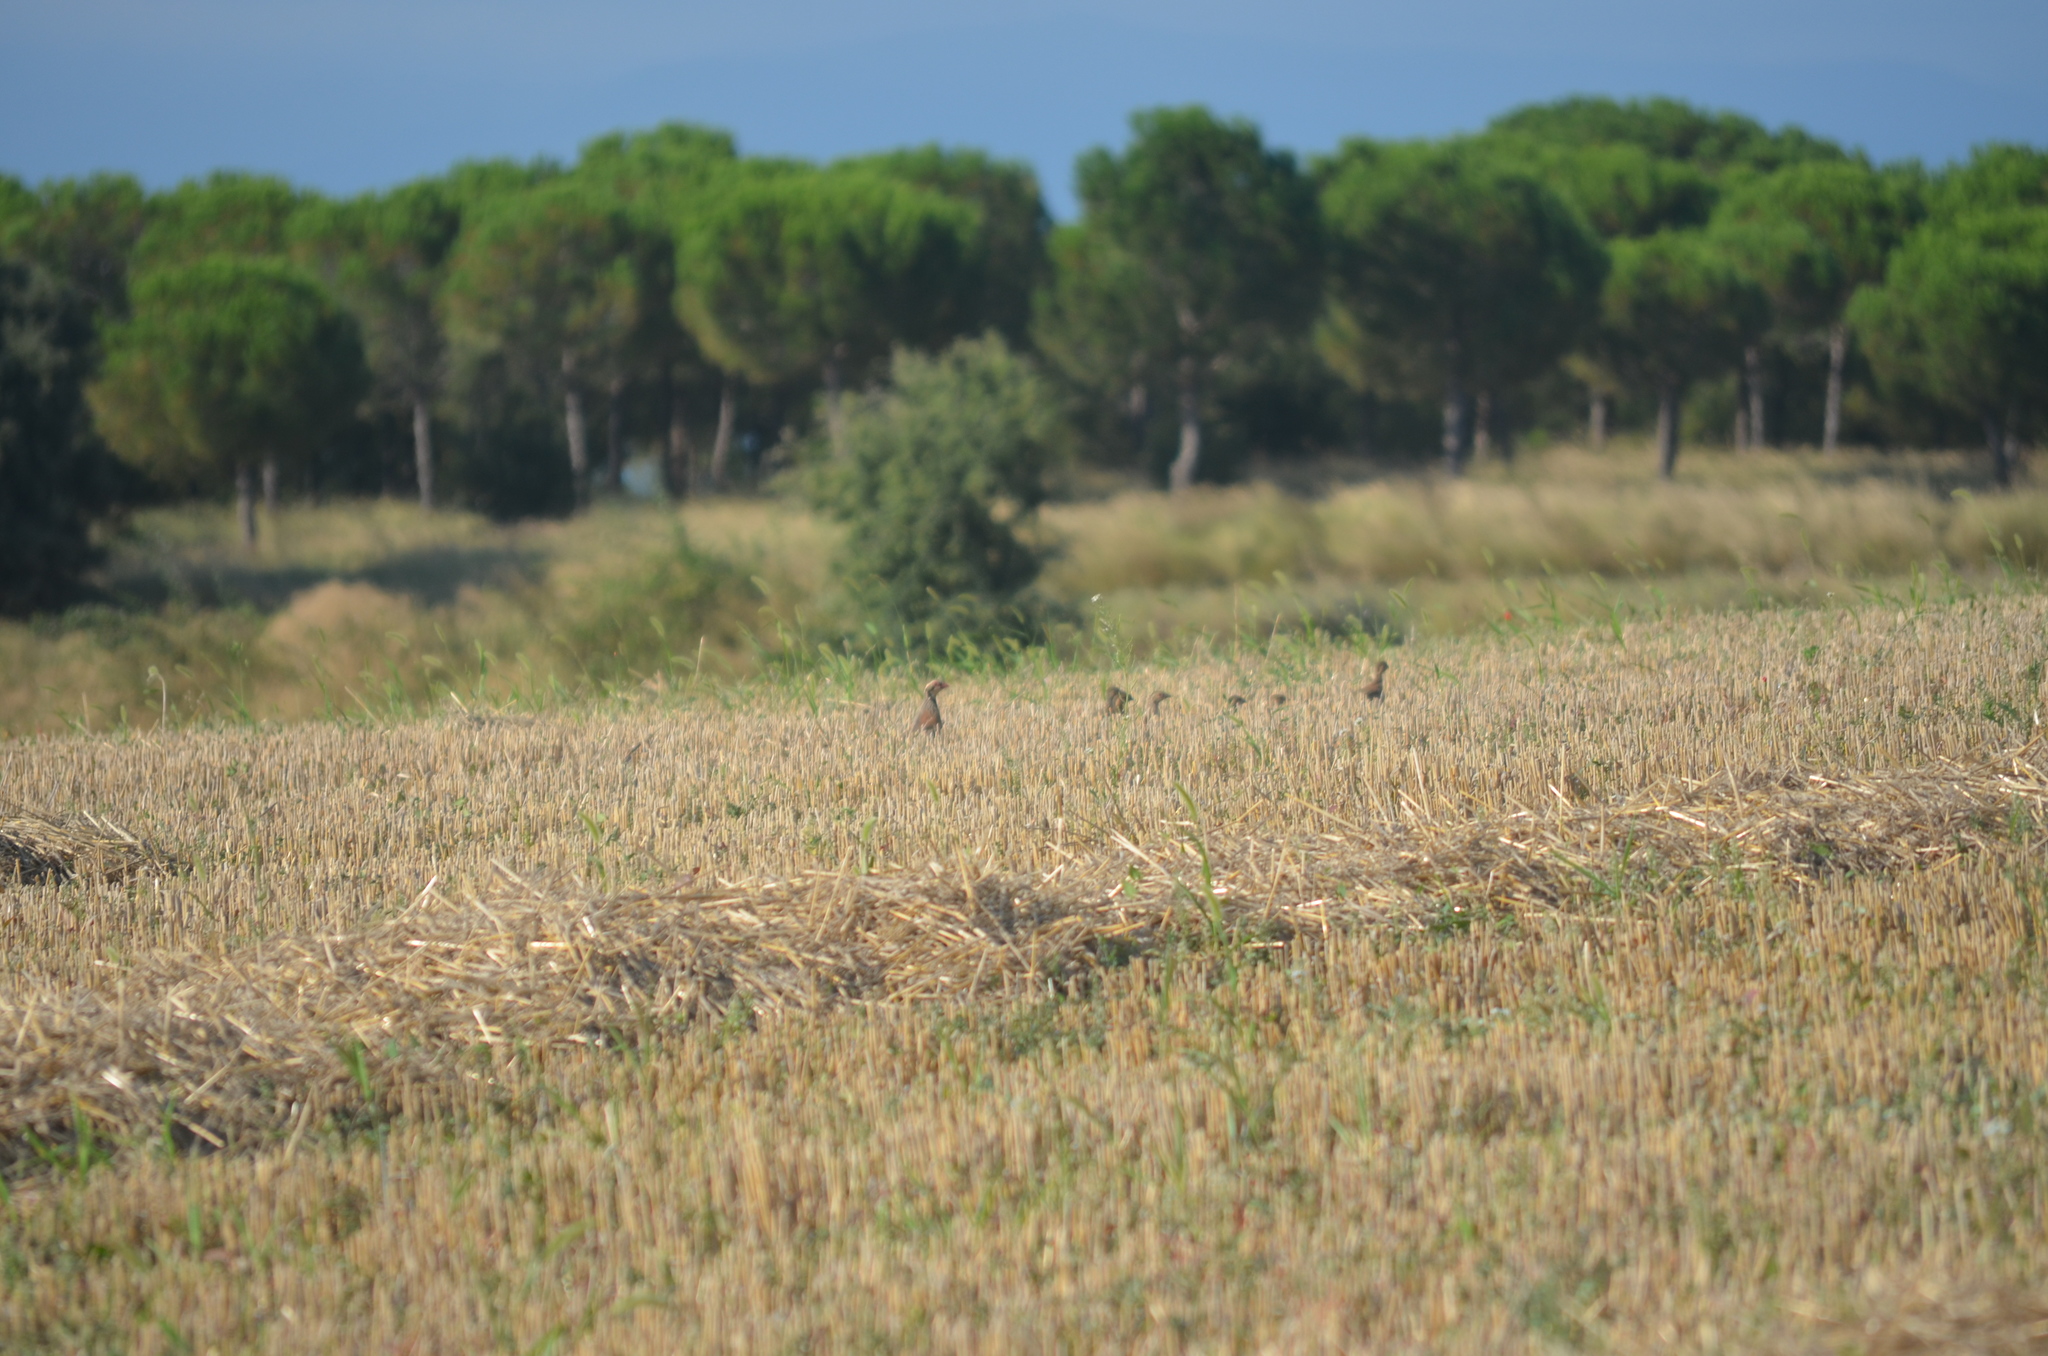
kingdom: Animalia
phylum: Chordata
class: Aves
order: Galliformes
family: Phasianidae
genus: Alectoris
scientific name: Alectoris rufa
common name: Red-legged partridge
